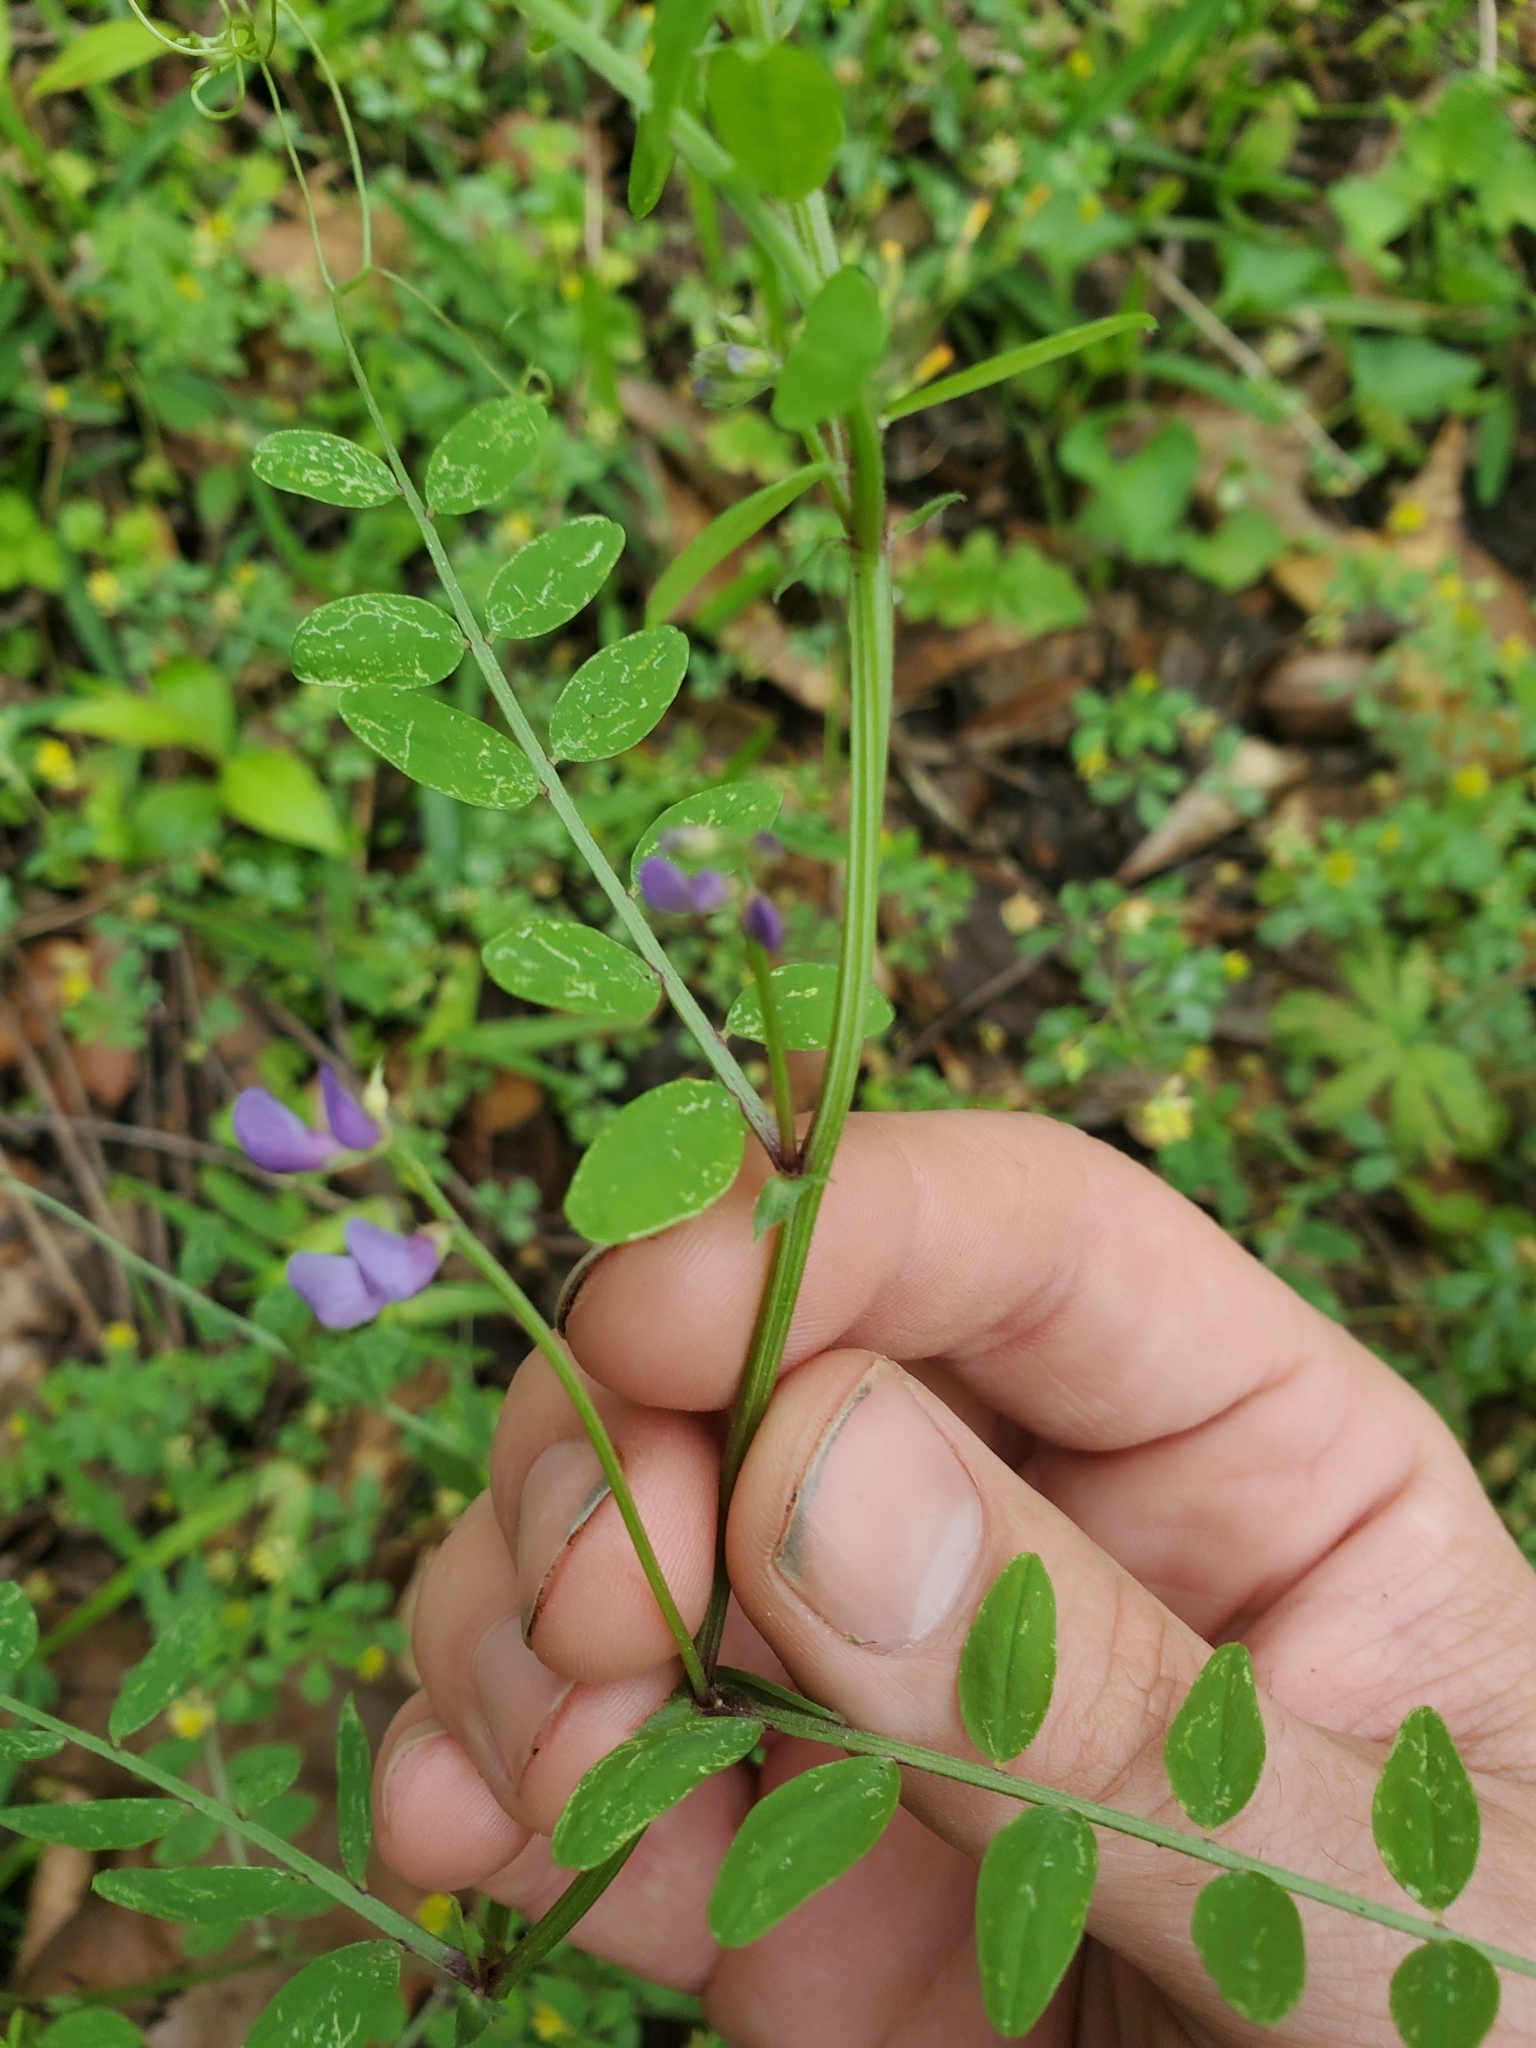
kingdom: Plantae
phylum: Tracheophyta
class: Magnoliopsida
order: Fabales
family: Fabaceae
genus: Vicia
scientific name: Vicia ludoviciana
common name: Louisiana vetch
